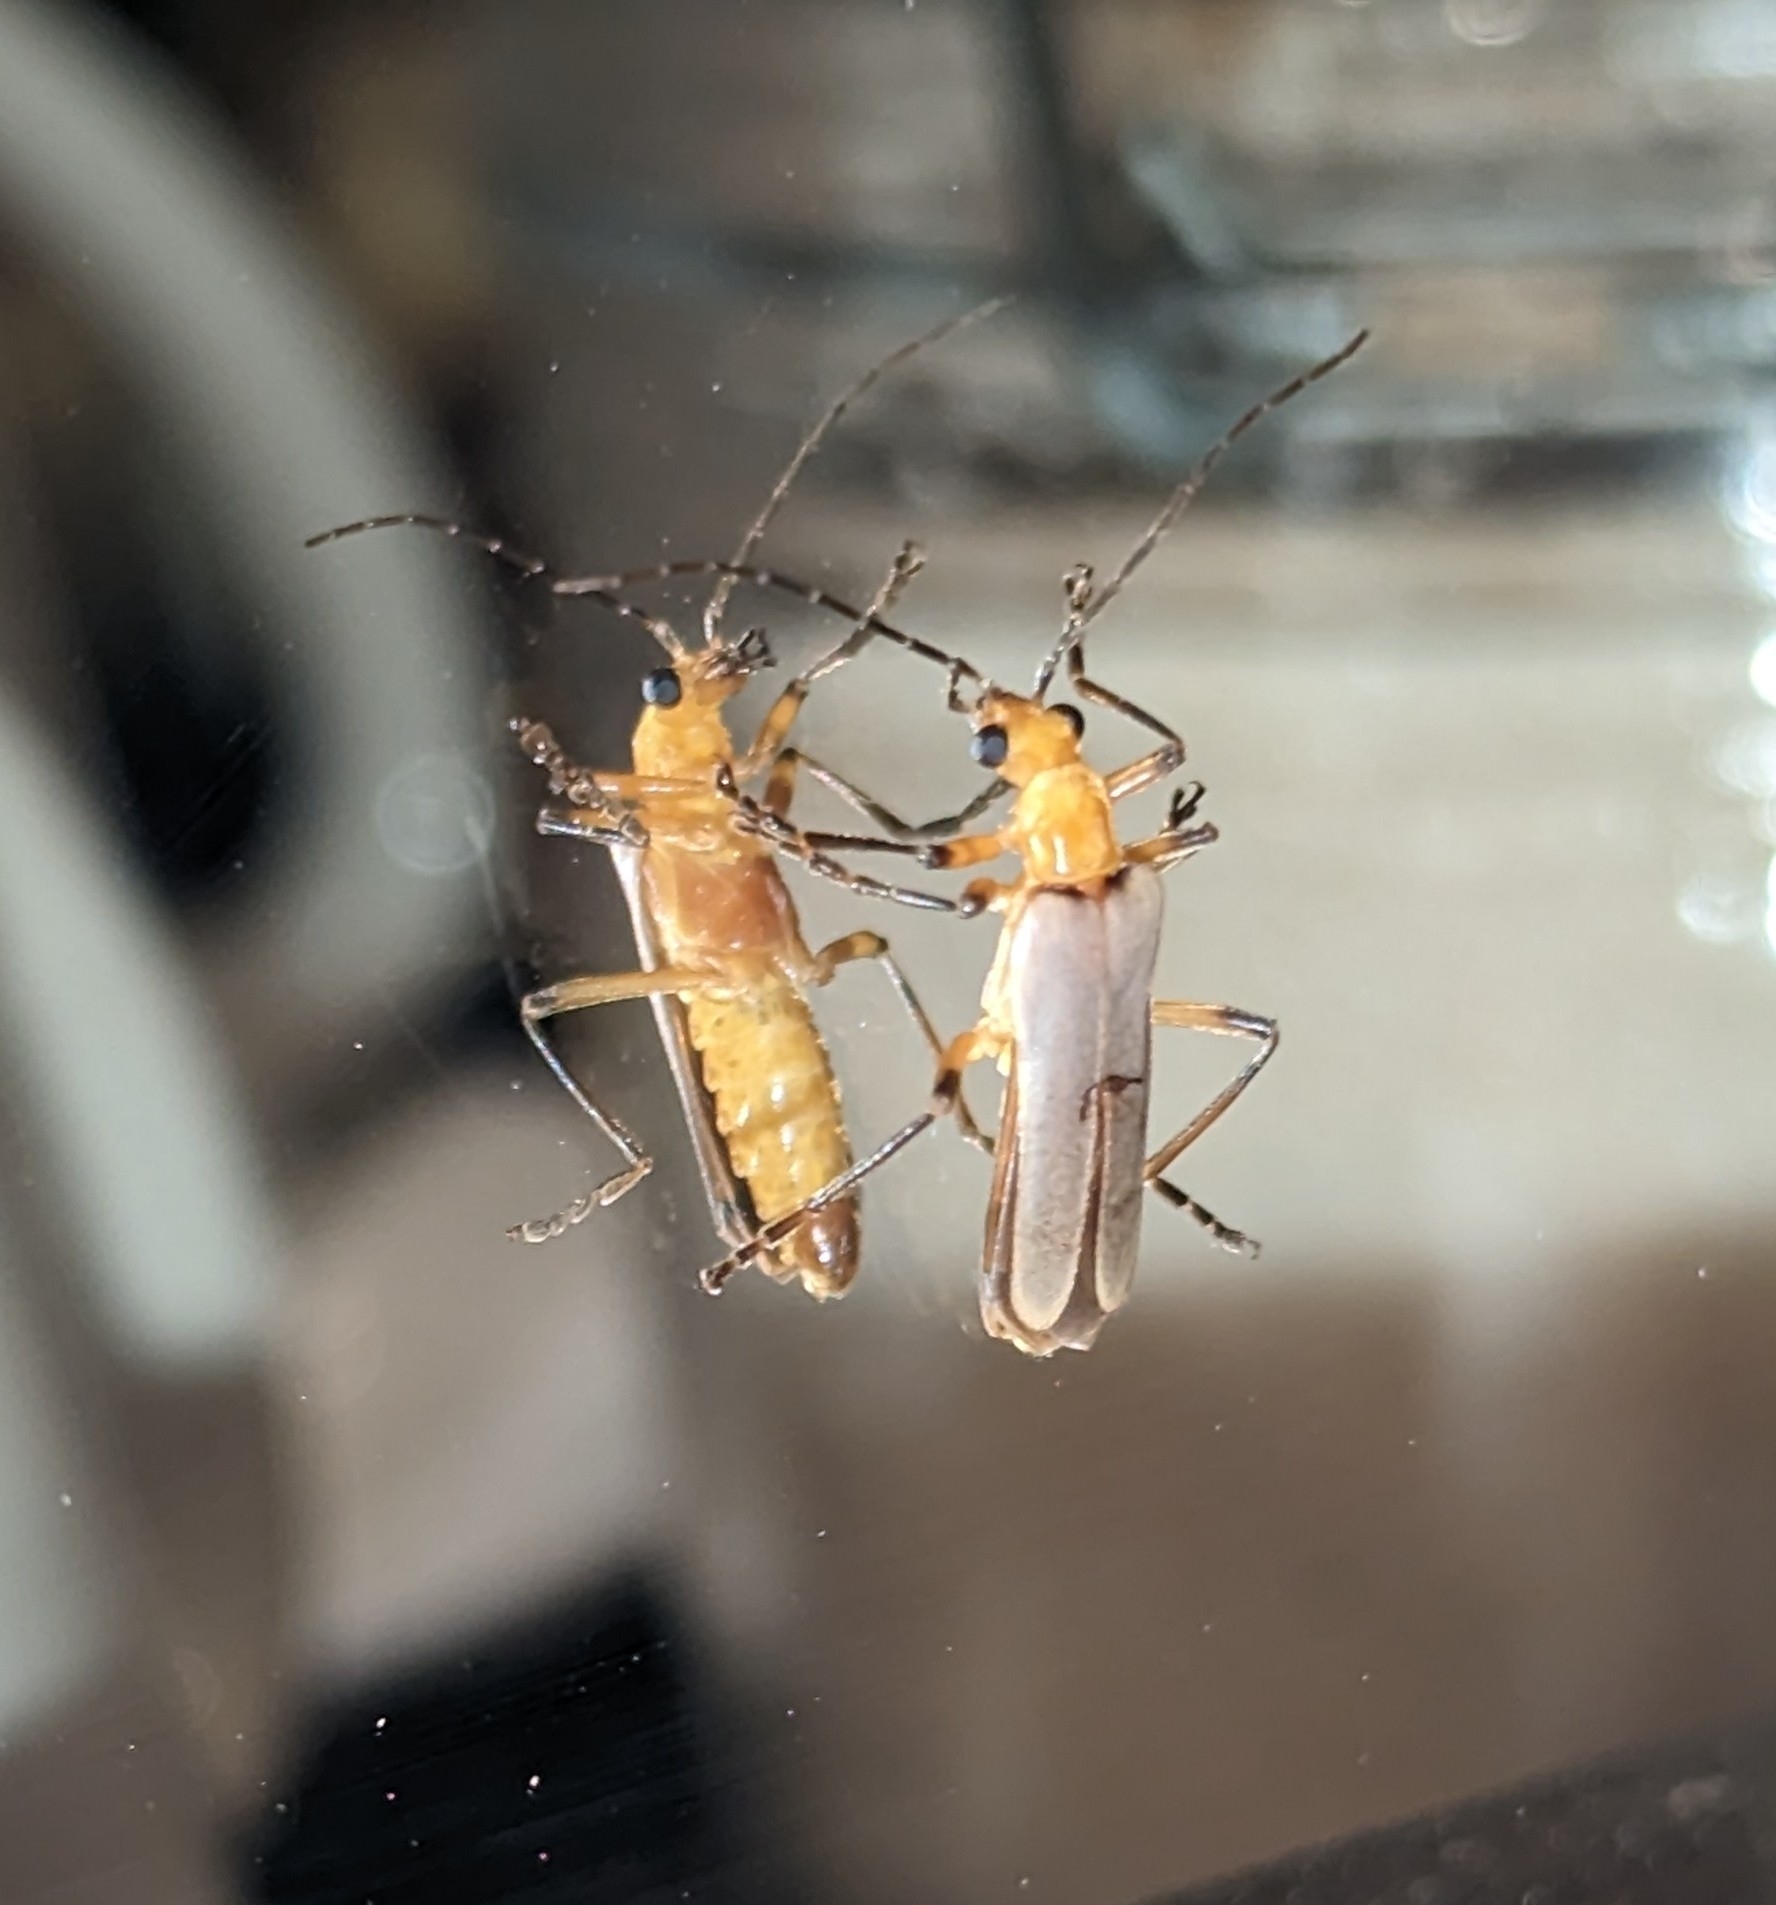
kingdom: Animalia
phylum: Arthropoda
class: Insecta
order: Coleoptera
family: Cantharidae
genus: Chauliognathus
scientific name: Chauliognathus
